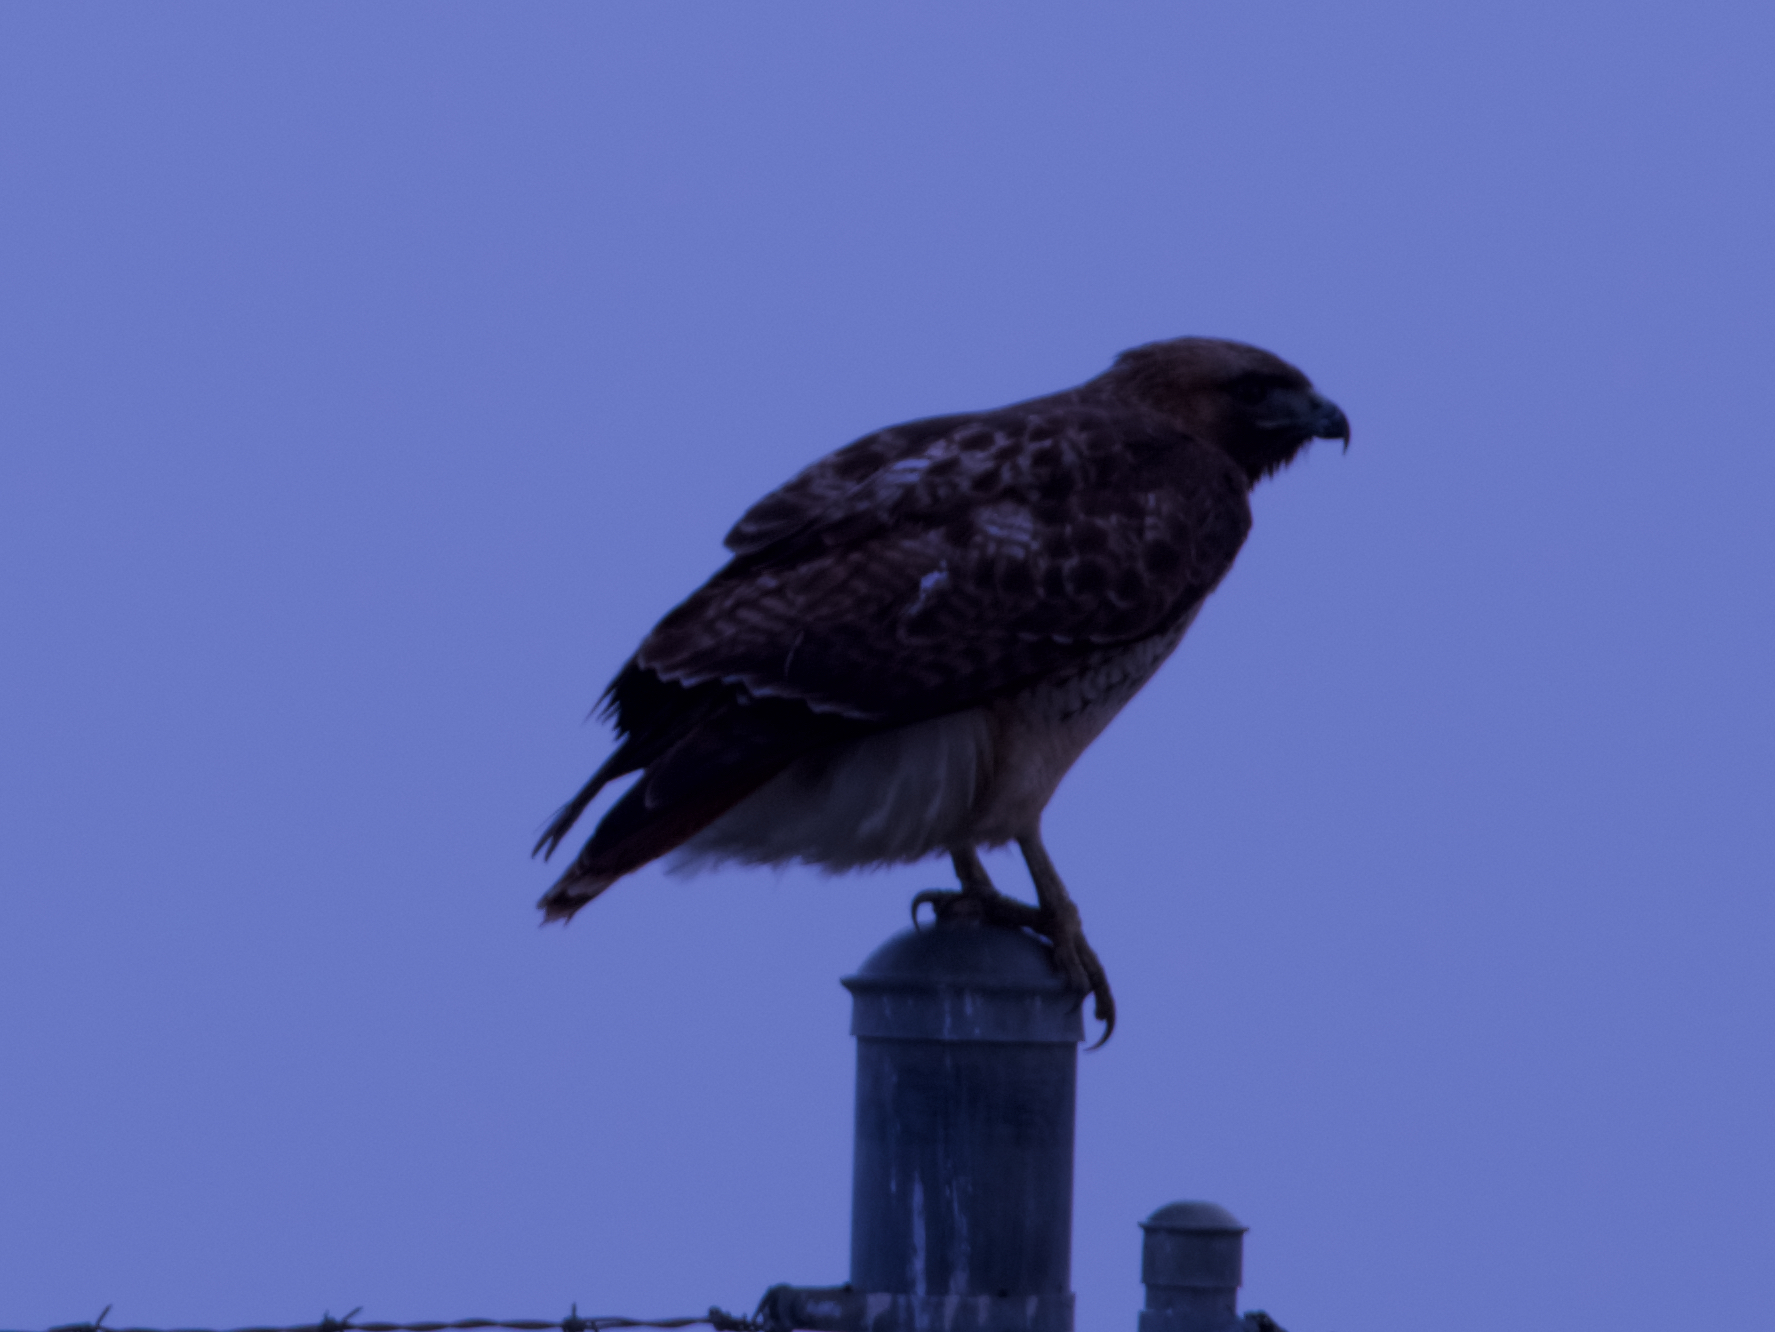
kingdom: Animalia
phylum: Chordata
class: Aves
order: Accipitriformes
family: Accipitridae
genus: Buteo
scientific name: Buteo jamaicensis
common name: Red-tailed hawk
